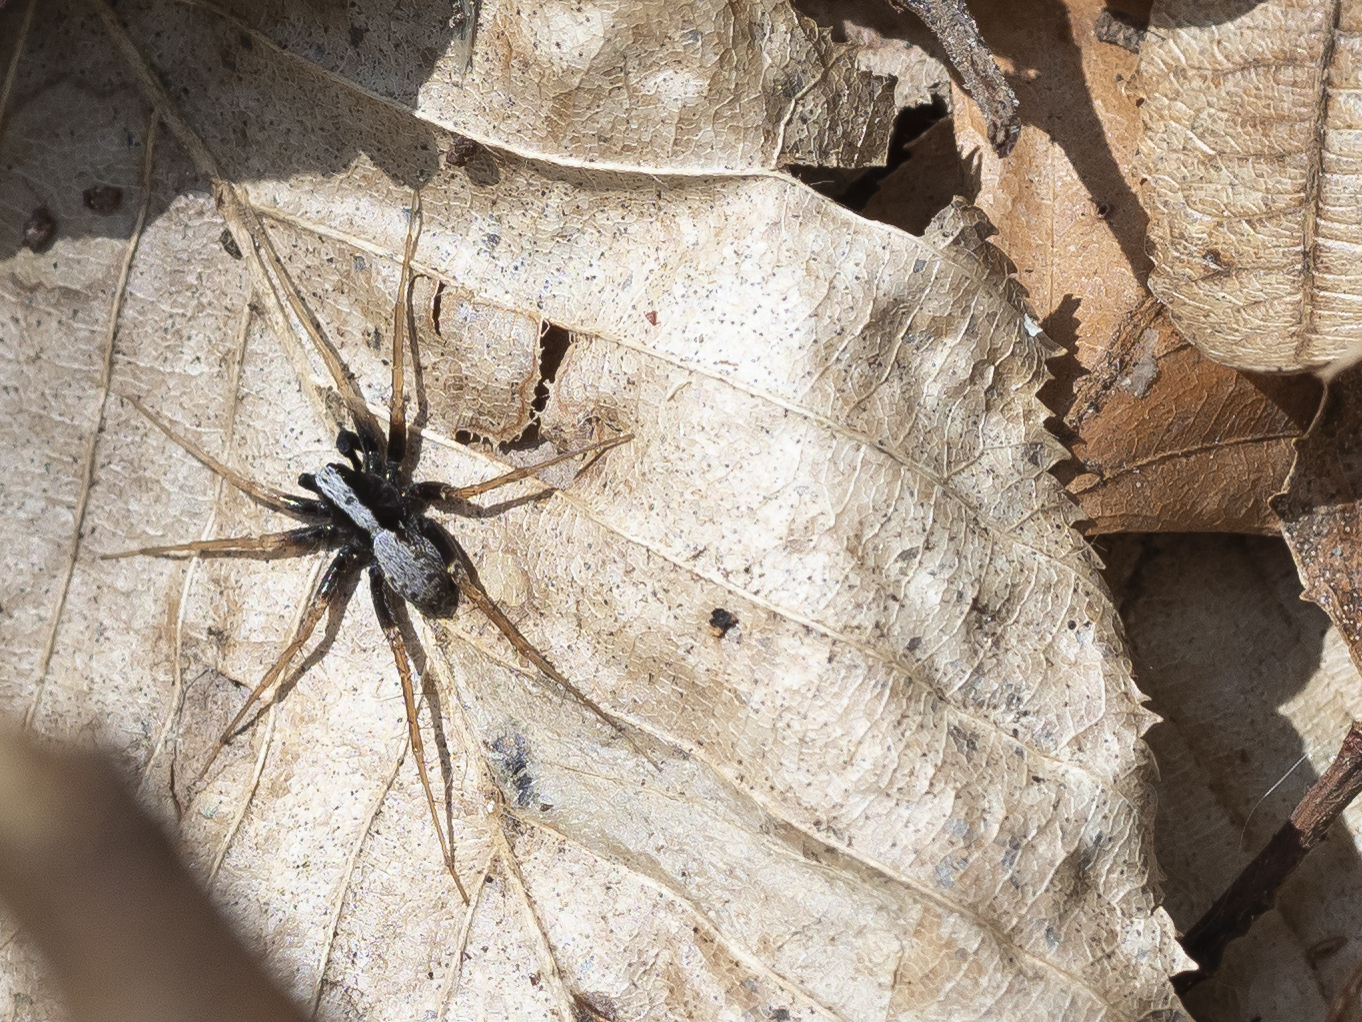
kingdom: Animalia
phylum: Arthropoda
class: Arachnida
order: Araneae
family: Lycosidae
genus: Pardosa
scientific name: Pardosa
